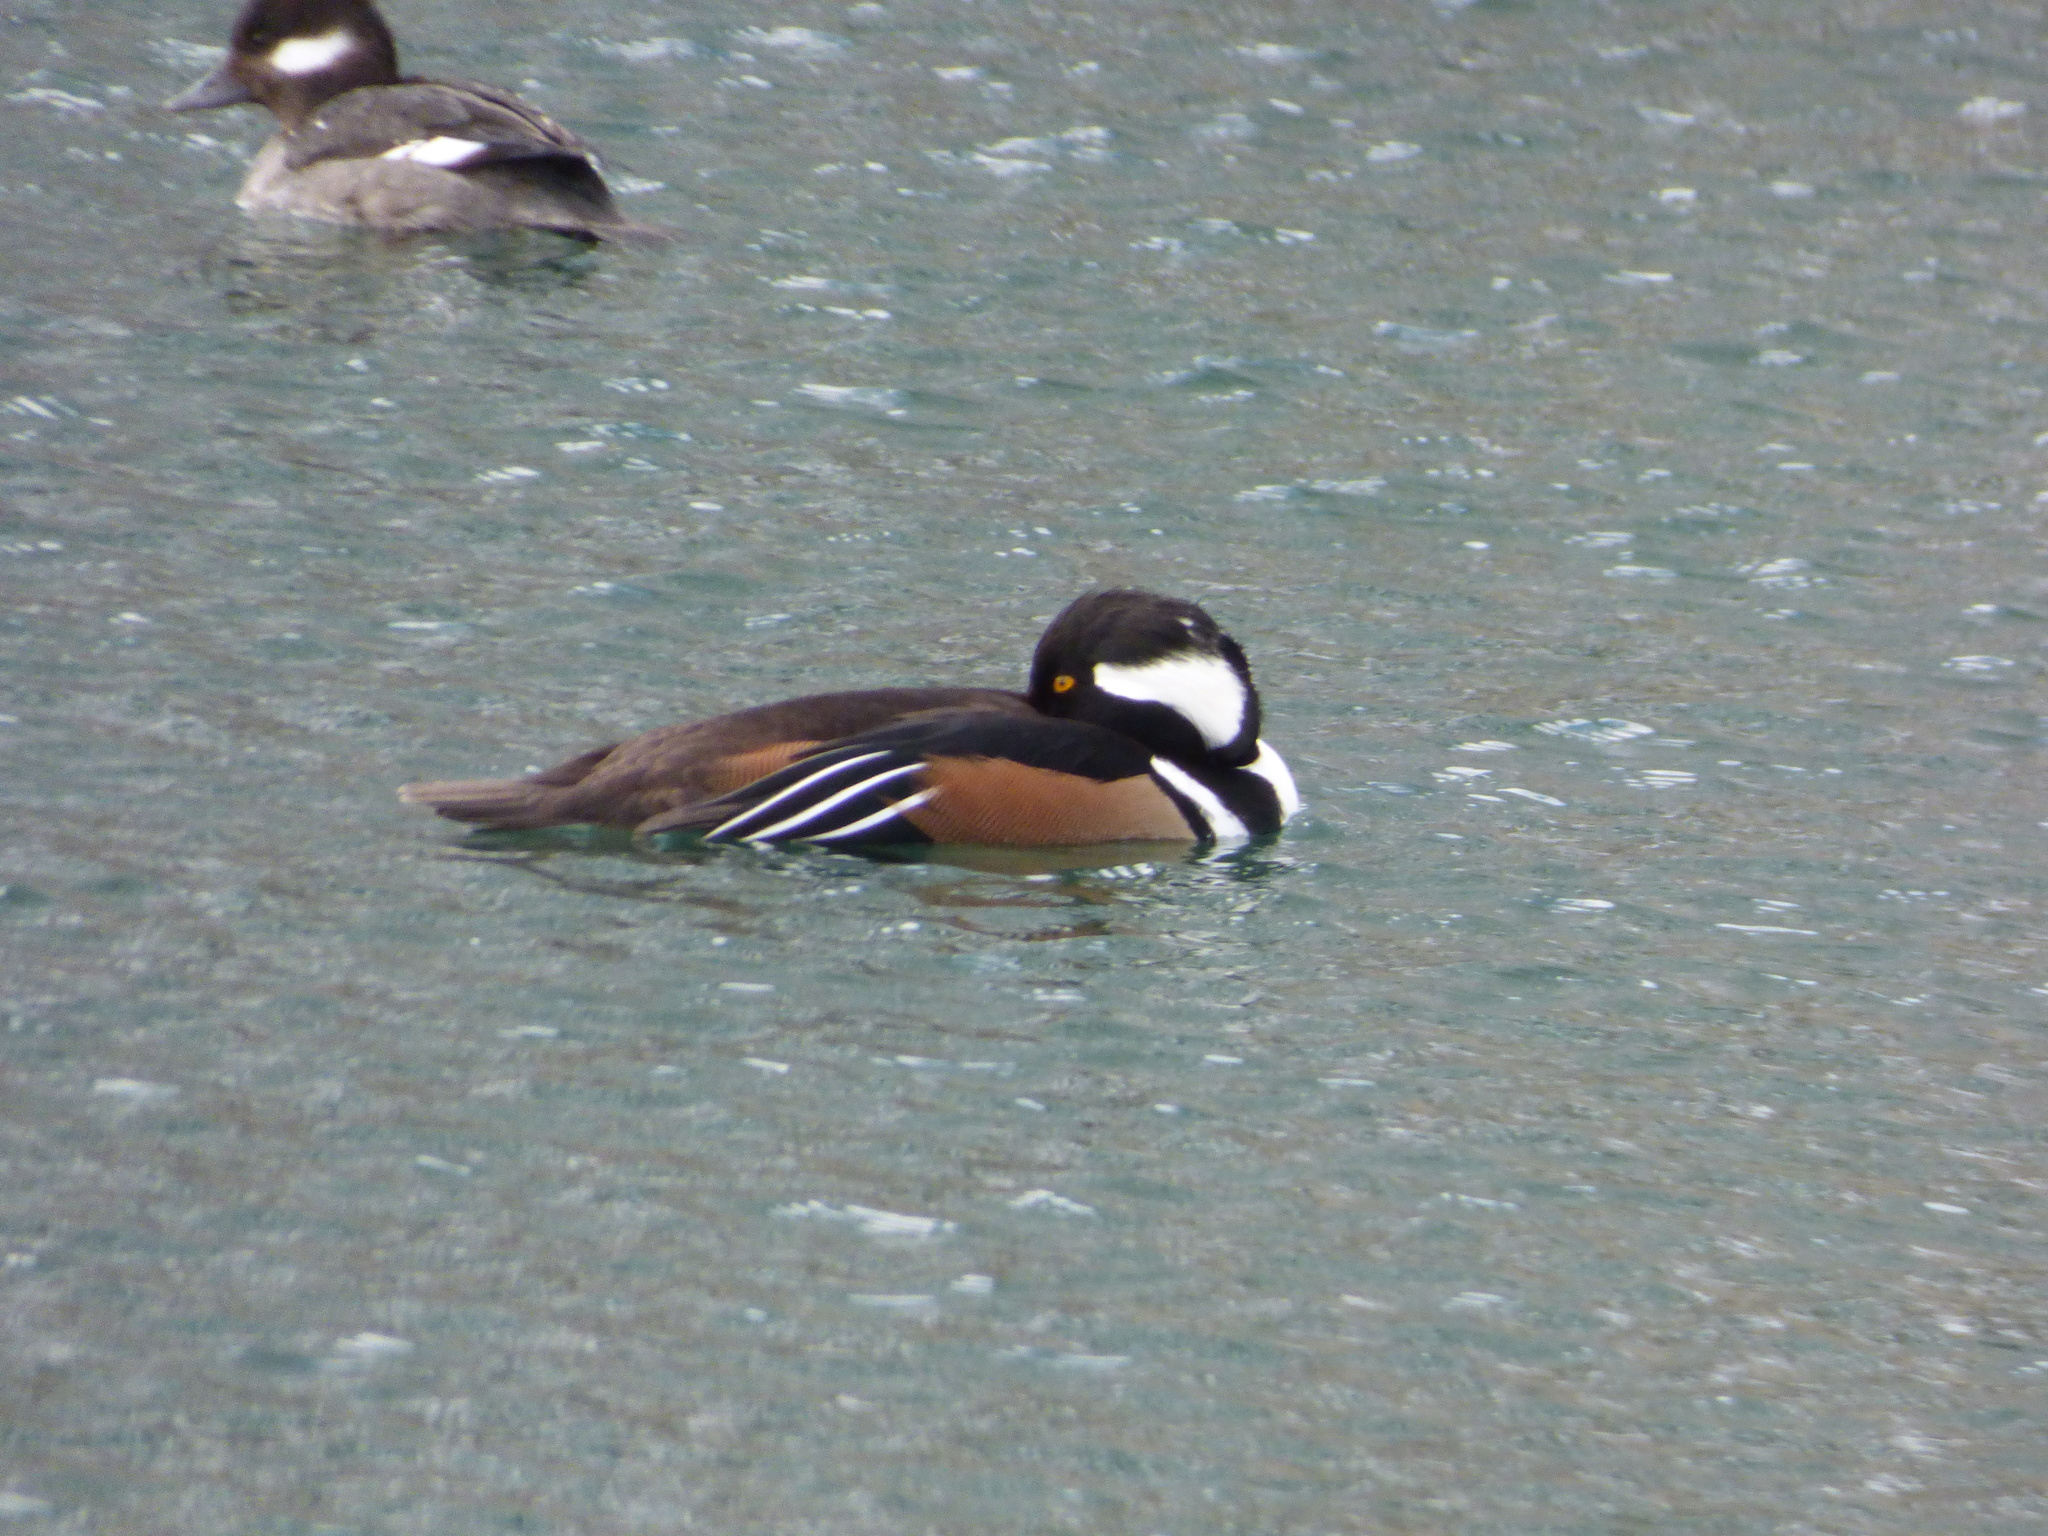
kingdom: Animalia
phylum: Chordata
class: Aves
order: Anseriformes
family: Anatidae
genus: Lophodytes
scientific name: Lophodytes cucullatus
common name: Hooded merganser
